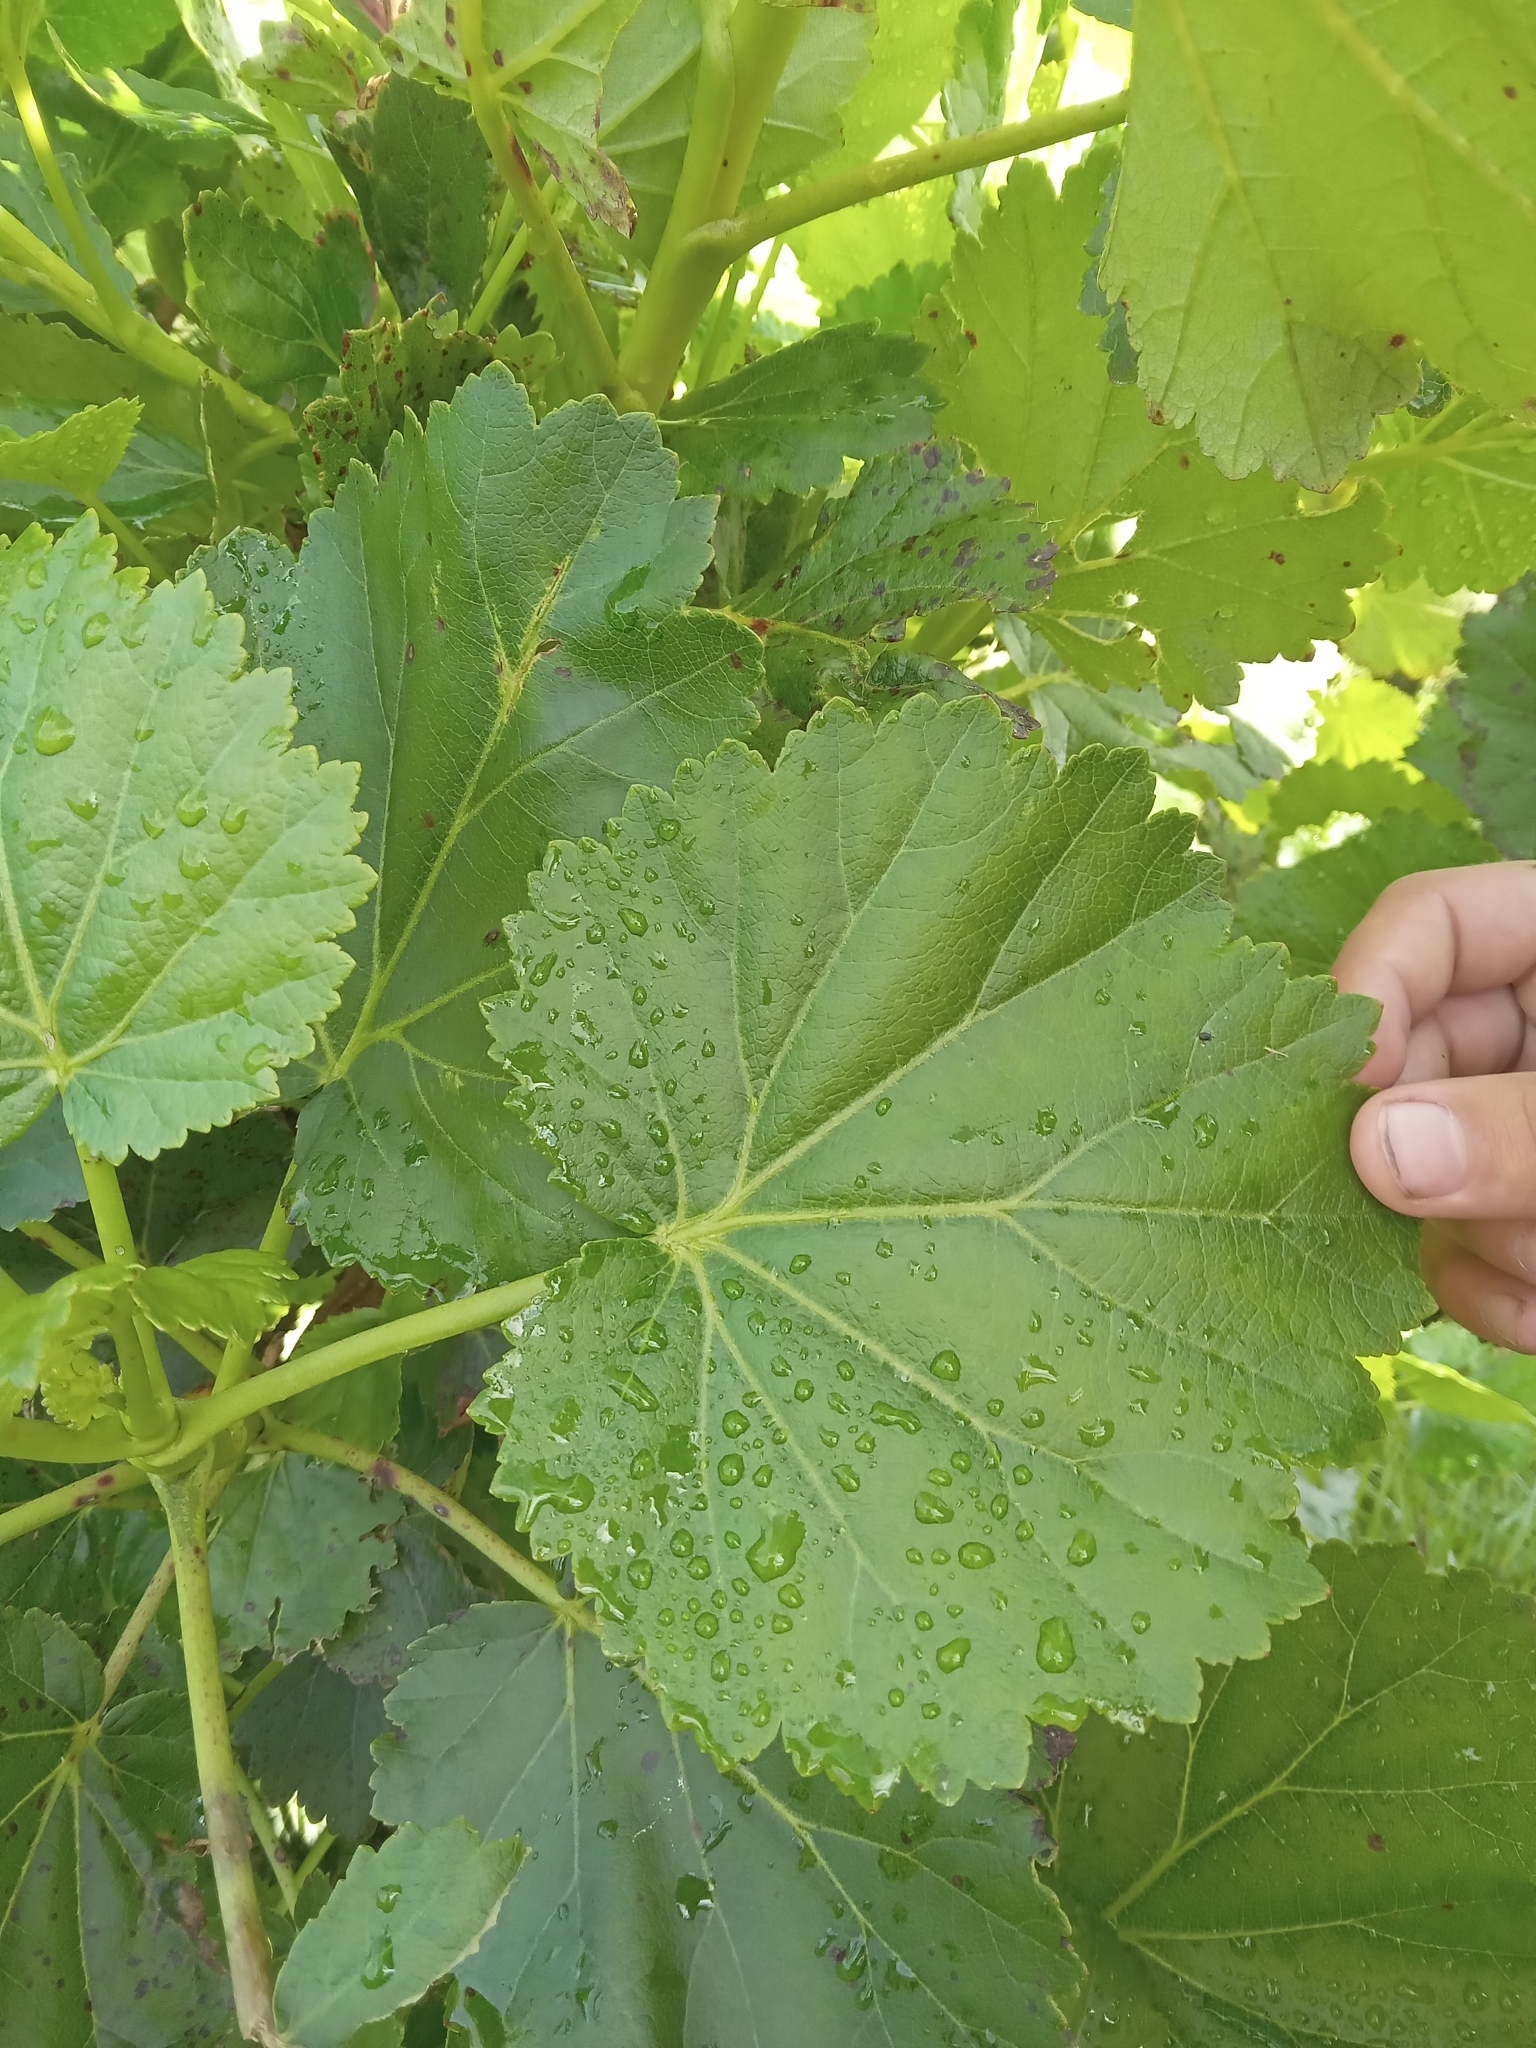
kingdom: Plantae
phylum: Tracheophyta
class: Magnoliopsida
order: Geraniales
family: Francoaceae
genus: Greyia
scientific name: Greyia sutherlandii
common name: Glossy bottlebrush
